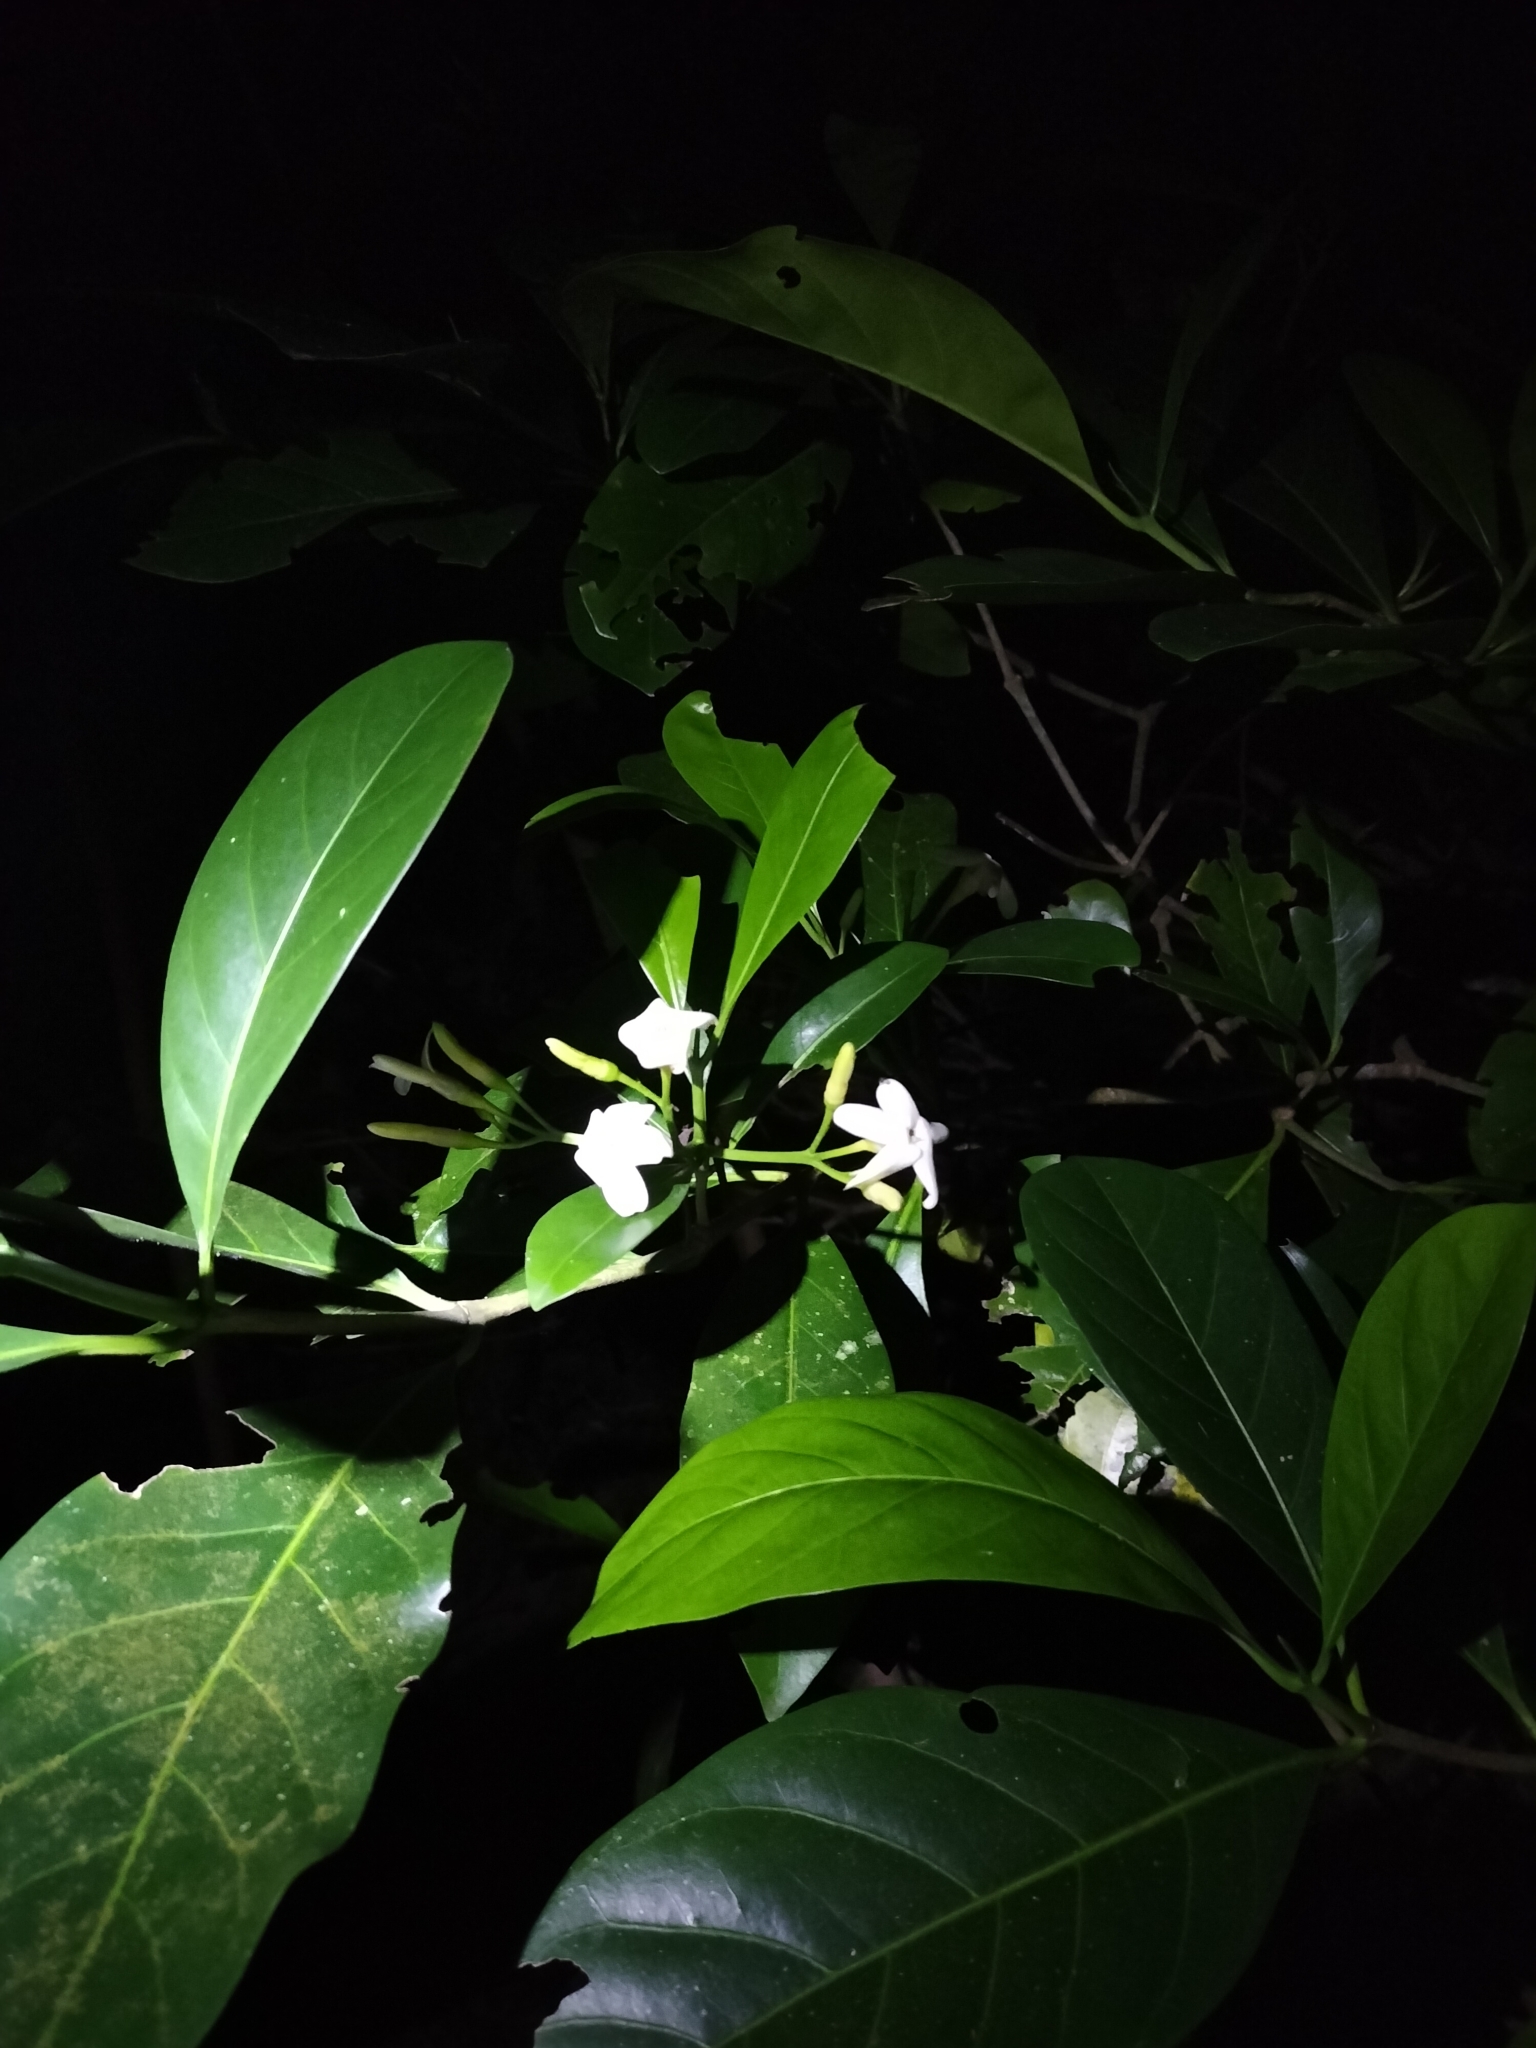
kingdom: Plantae
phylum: Tracheophyta
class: Magnoliopsida
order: Gentianales
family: Rubiaceae
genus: Atractocarpus
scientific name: Atractocarpus fitzalanii
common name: Randia
